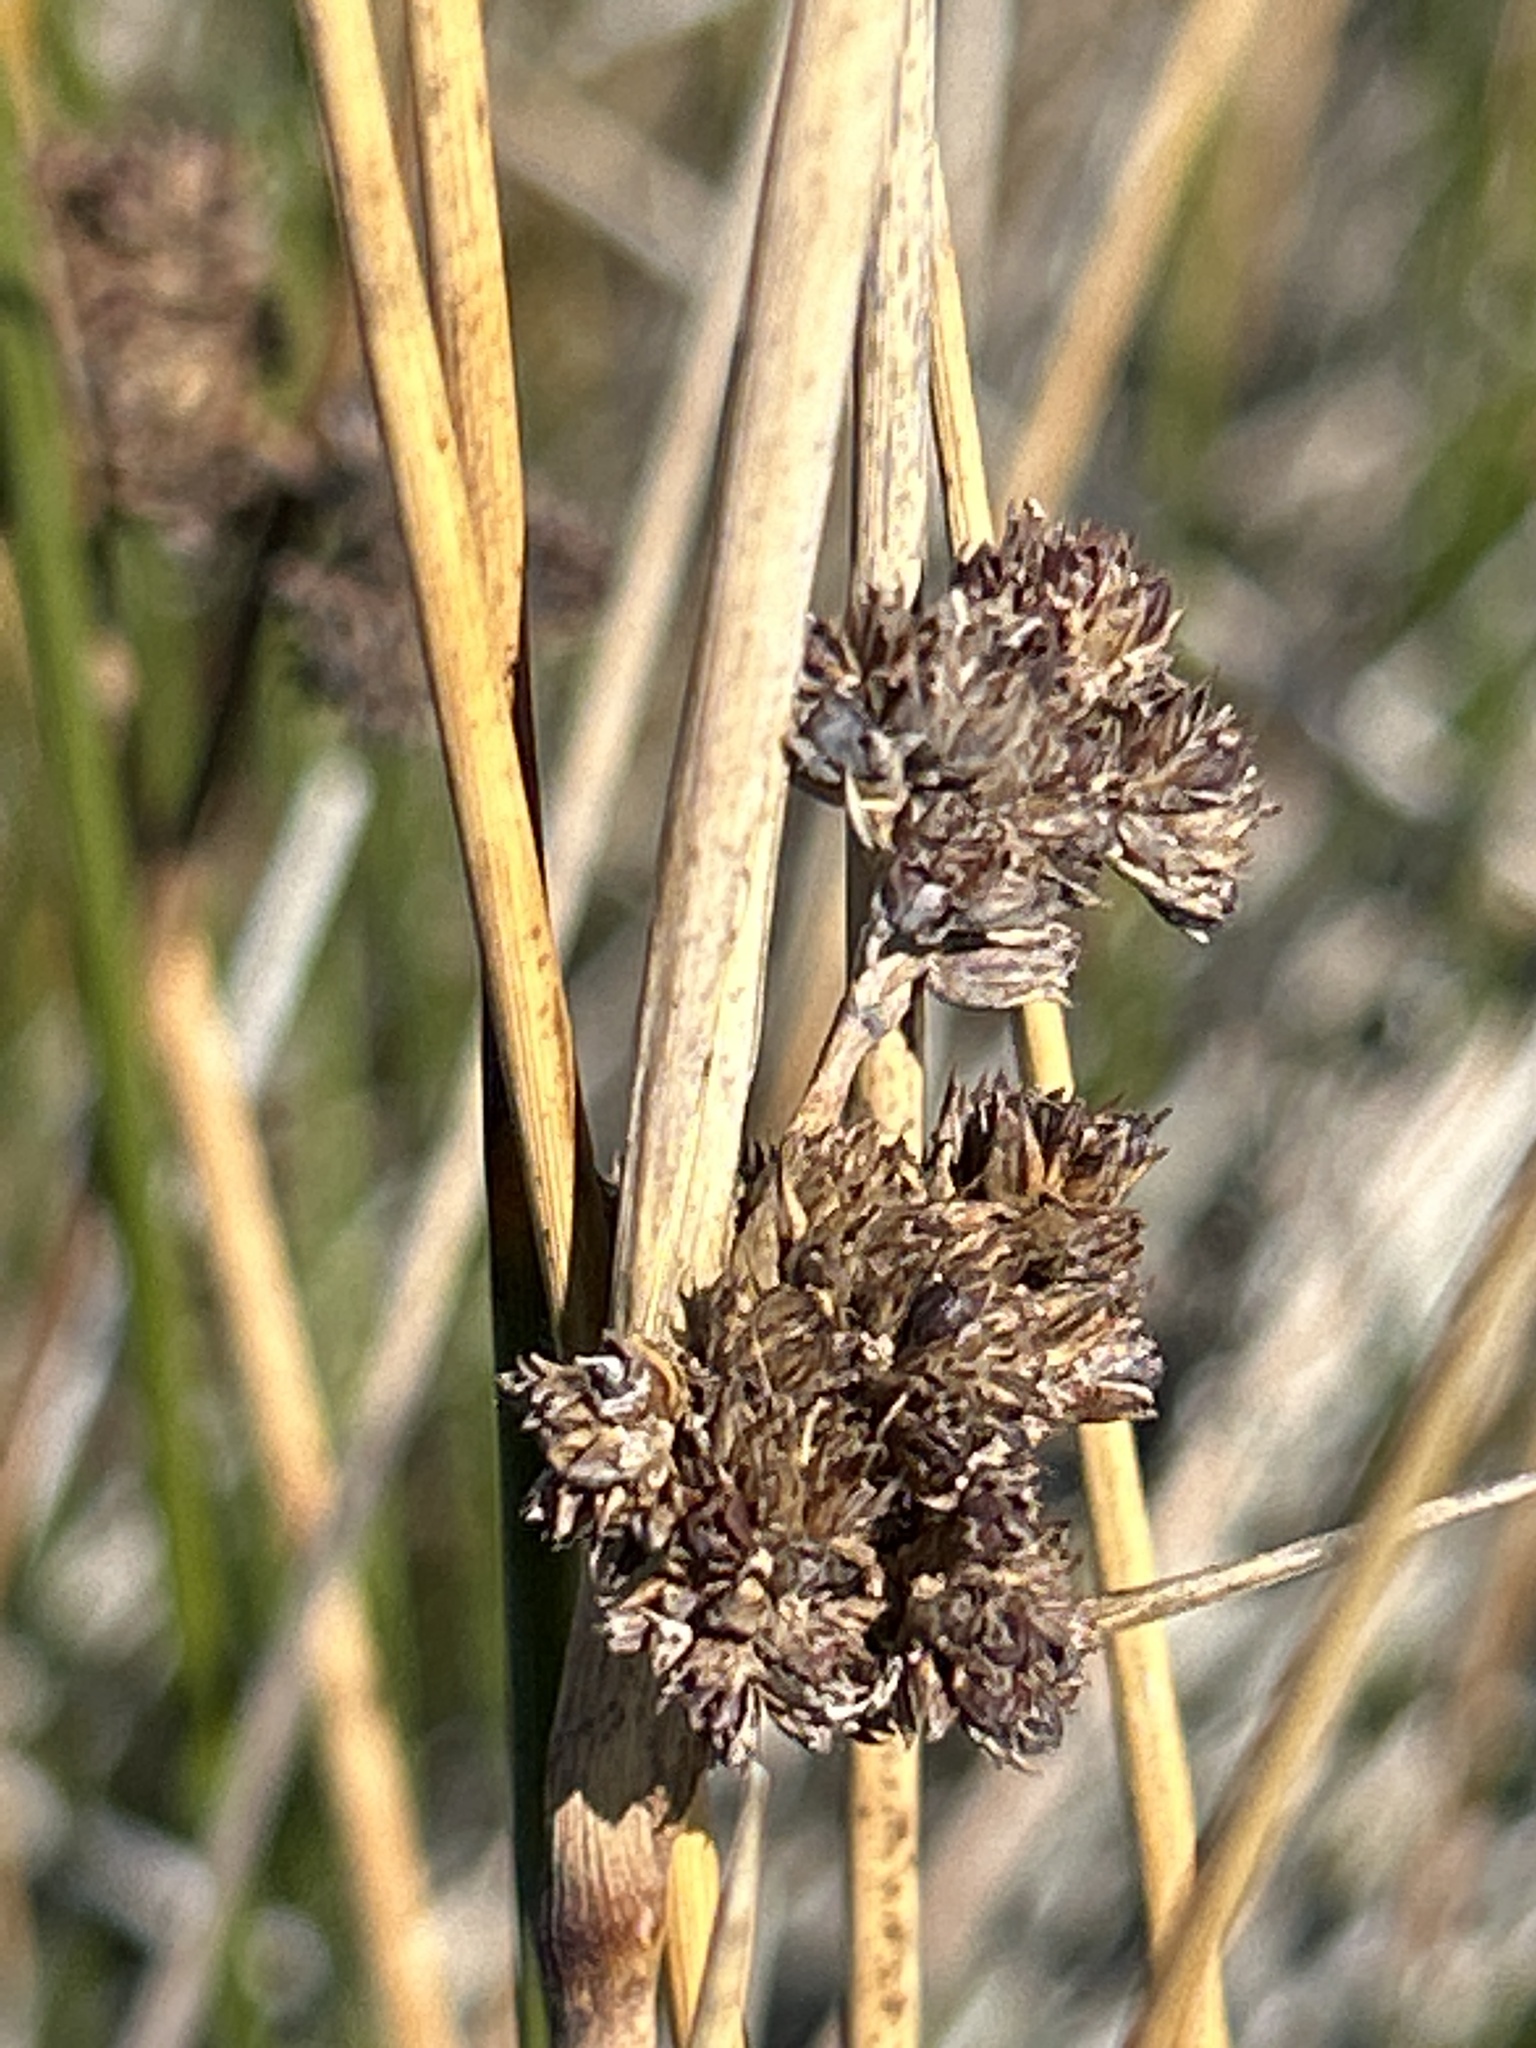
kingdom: Plantae
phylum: Tracheophyta
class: Liliopsida
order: Poales
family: Juncaceae
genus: Juncus
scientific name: Juncus kraussii
